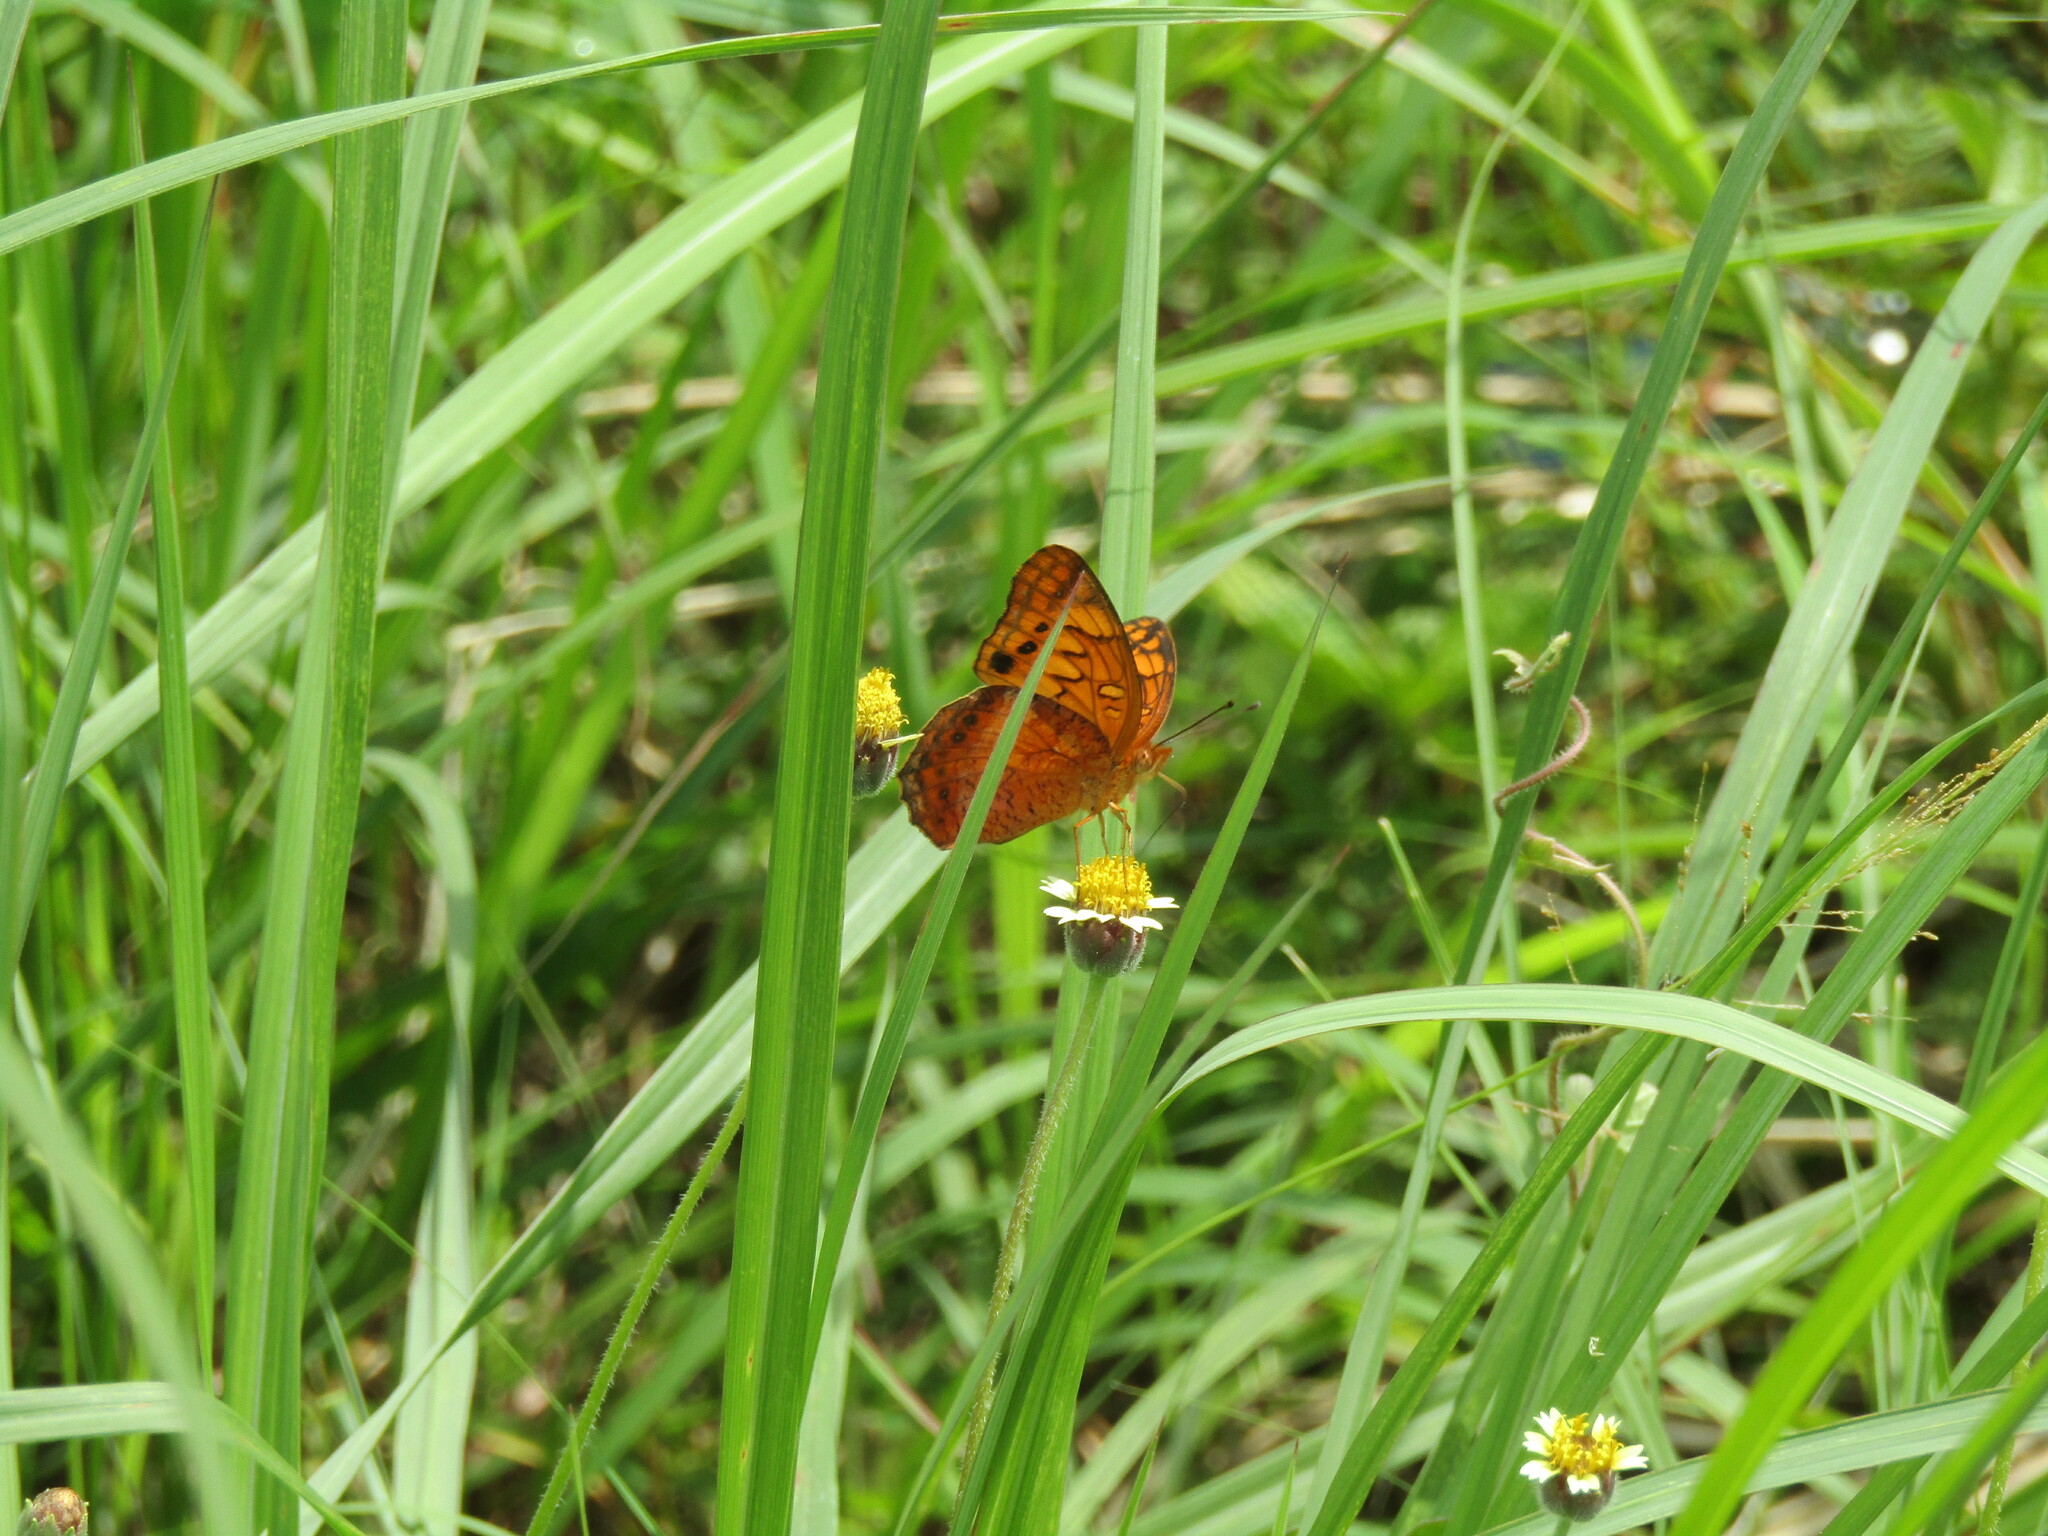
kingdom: Animalia
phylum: Arthropoda
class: Insecta
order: Lepidoptera
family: Nymphalidae
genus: Euptoieta
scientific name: Euptoieta hegesia
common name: Mexican fritillary
